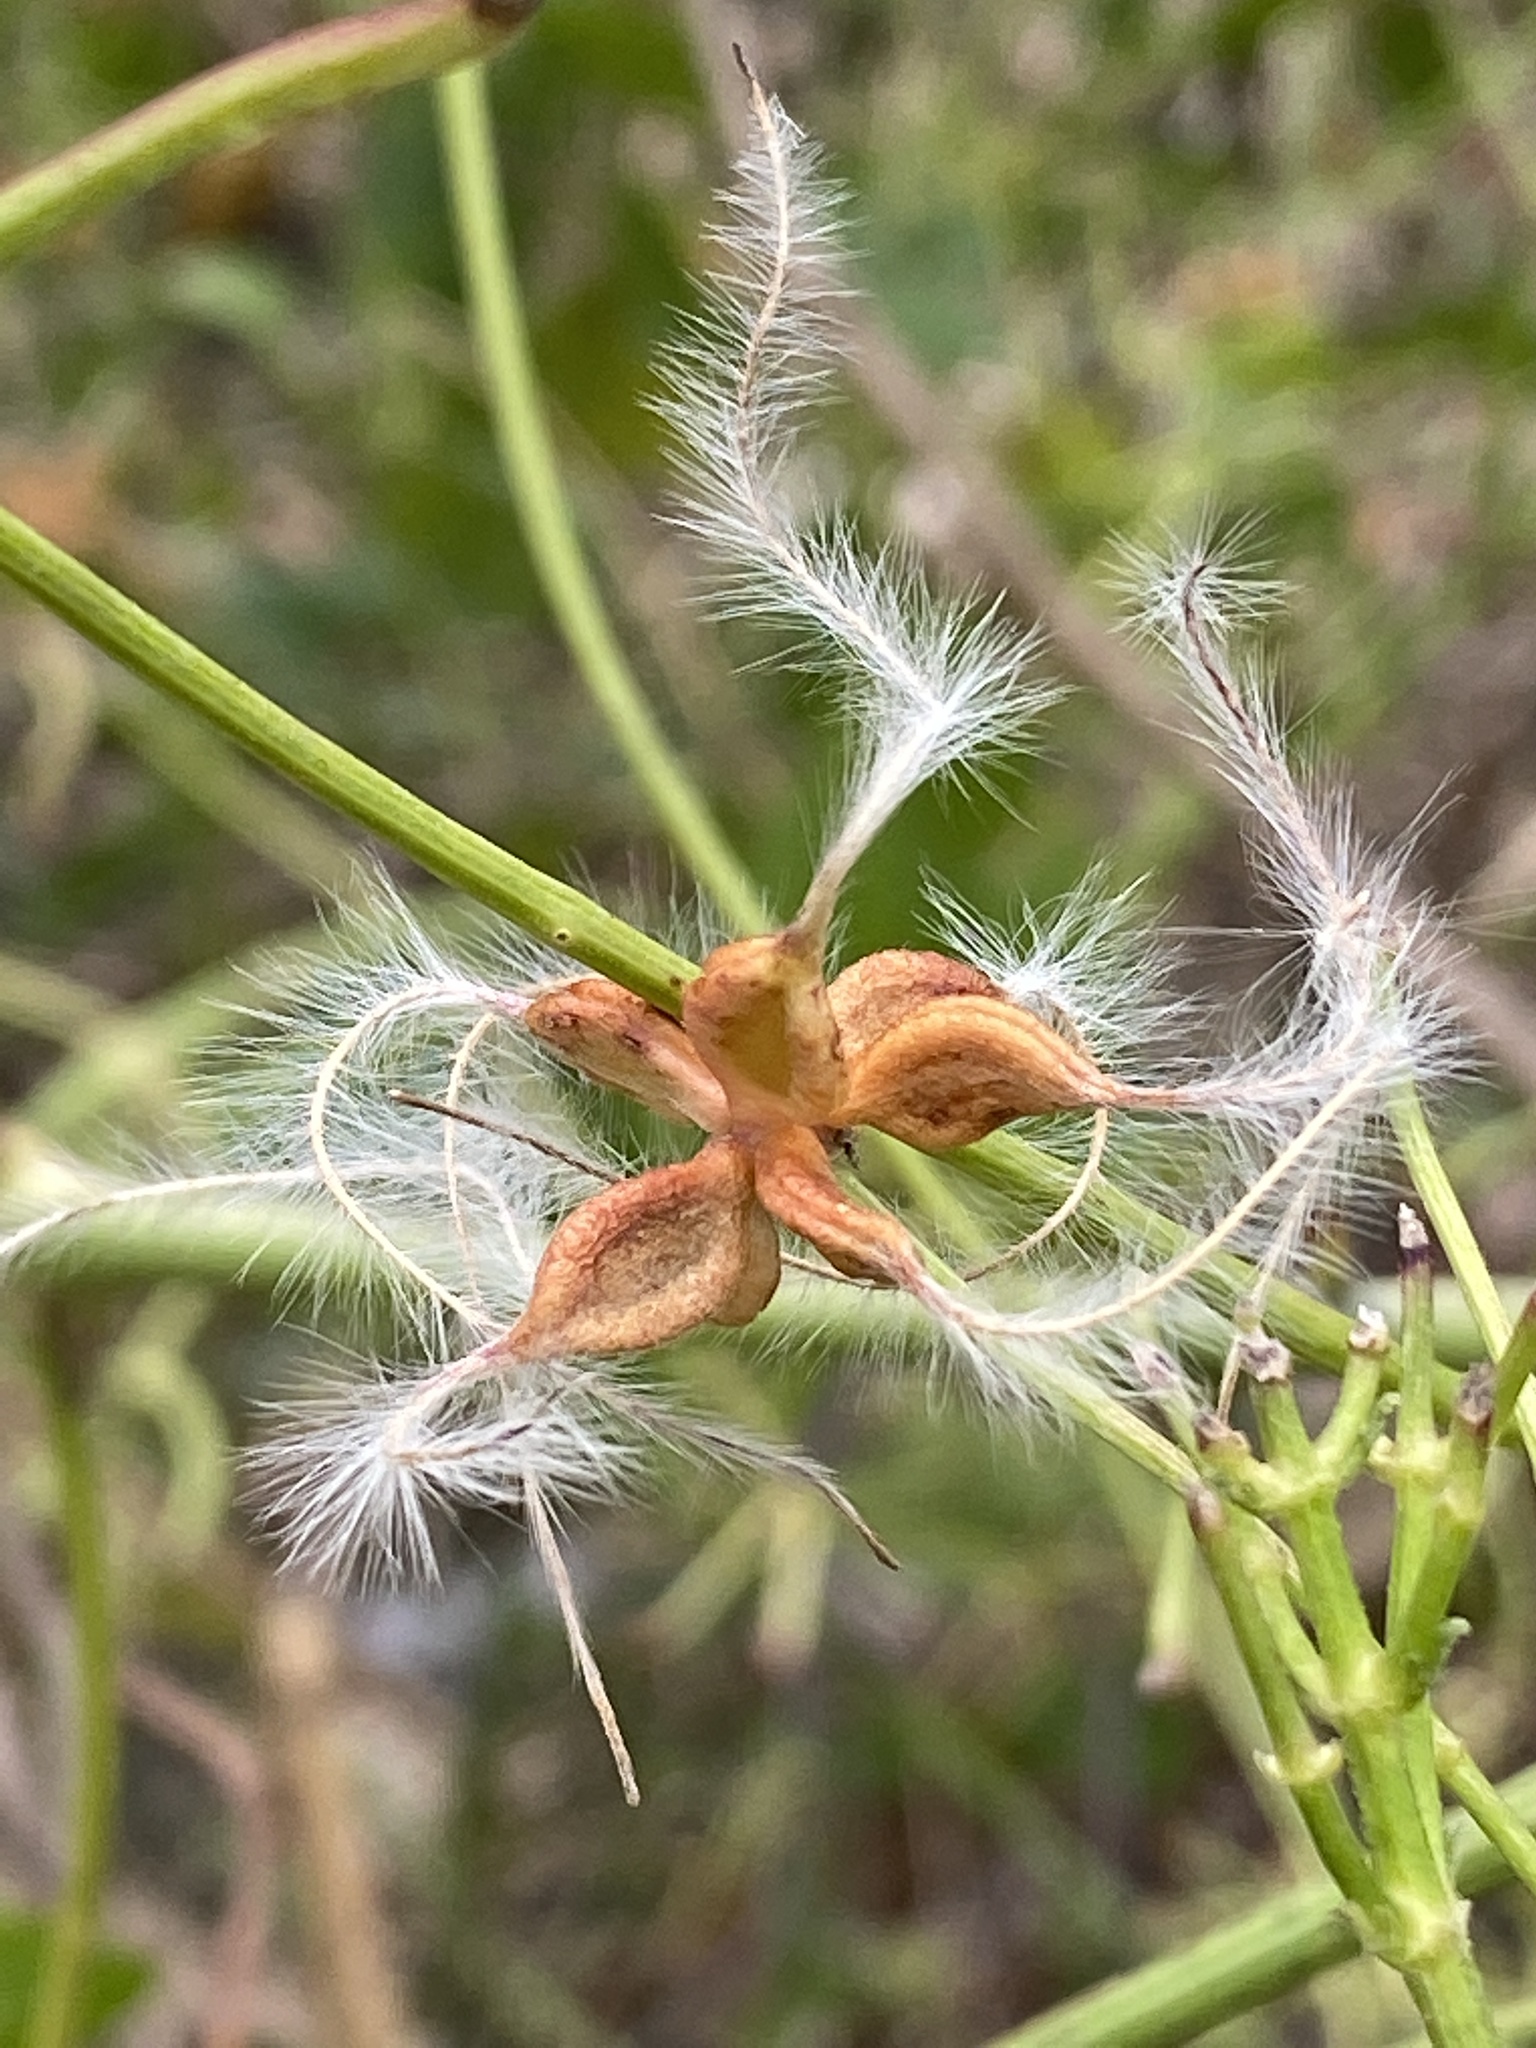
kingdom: Plantae
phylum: Tracheophyta
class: Magnoliopsida
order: Ranunculales
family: Ranunculaceae
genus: Clematis
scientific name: Clematis terniflora
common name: Sweet autumn clematis
